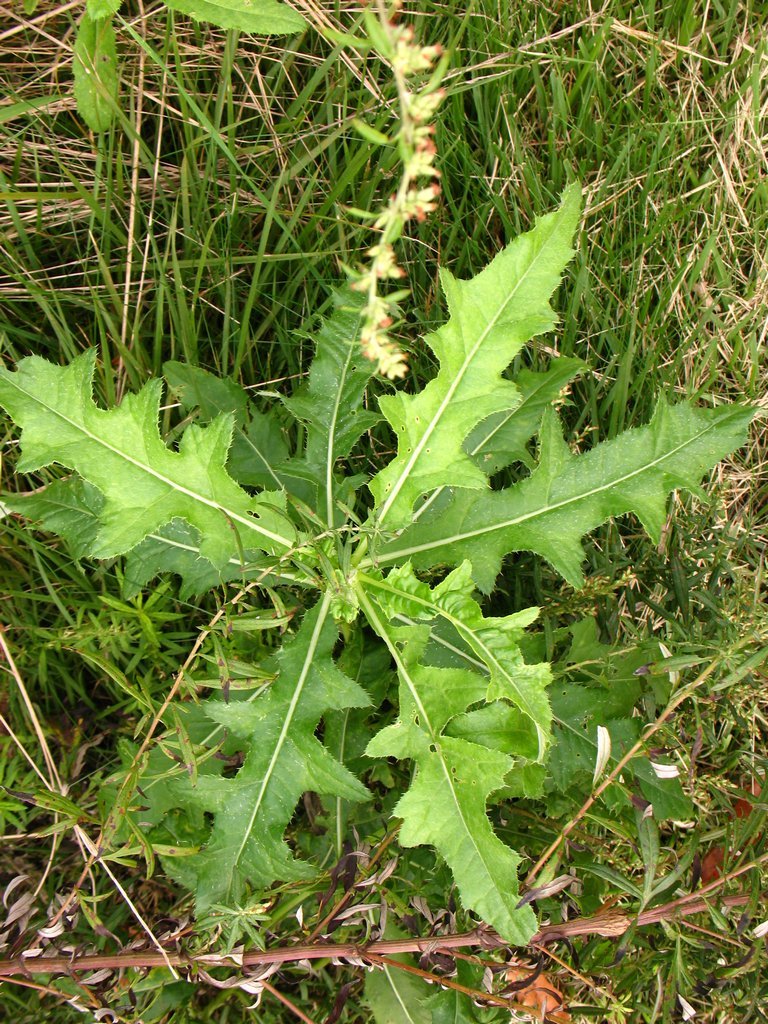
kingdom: Plantae
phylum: Tracheophyta
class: Magnoliopsida
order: Asterales
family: Asteraceae
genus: Cirsium
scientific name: Cirsium arvense
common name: Creeping thistle
